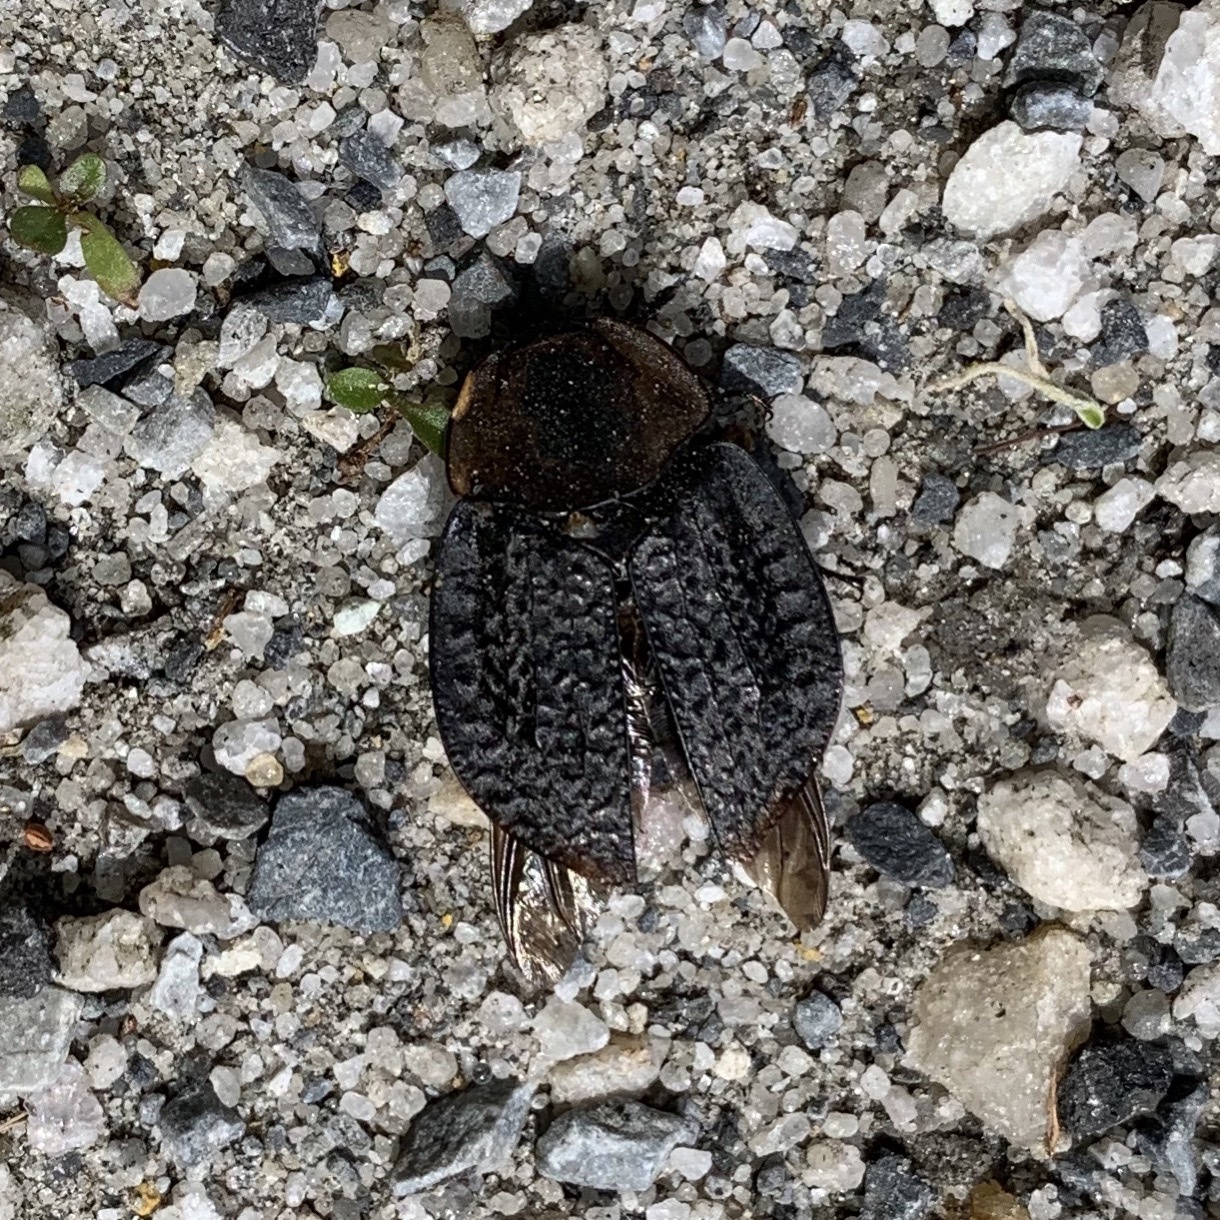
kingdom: Animalia
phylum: Arthropoda
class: Insecta
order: Coleoptera
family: Staphylinidae
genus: Necrophila
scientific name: Necrophila americana
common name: American carrion beetle
